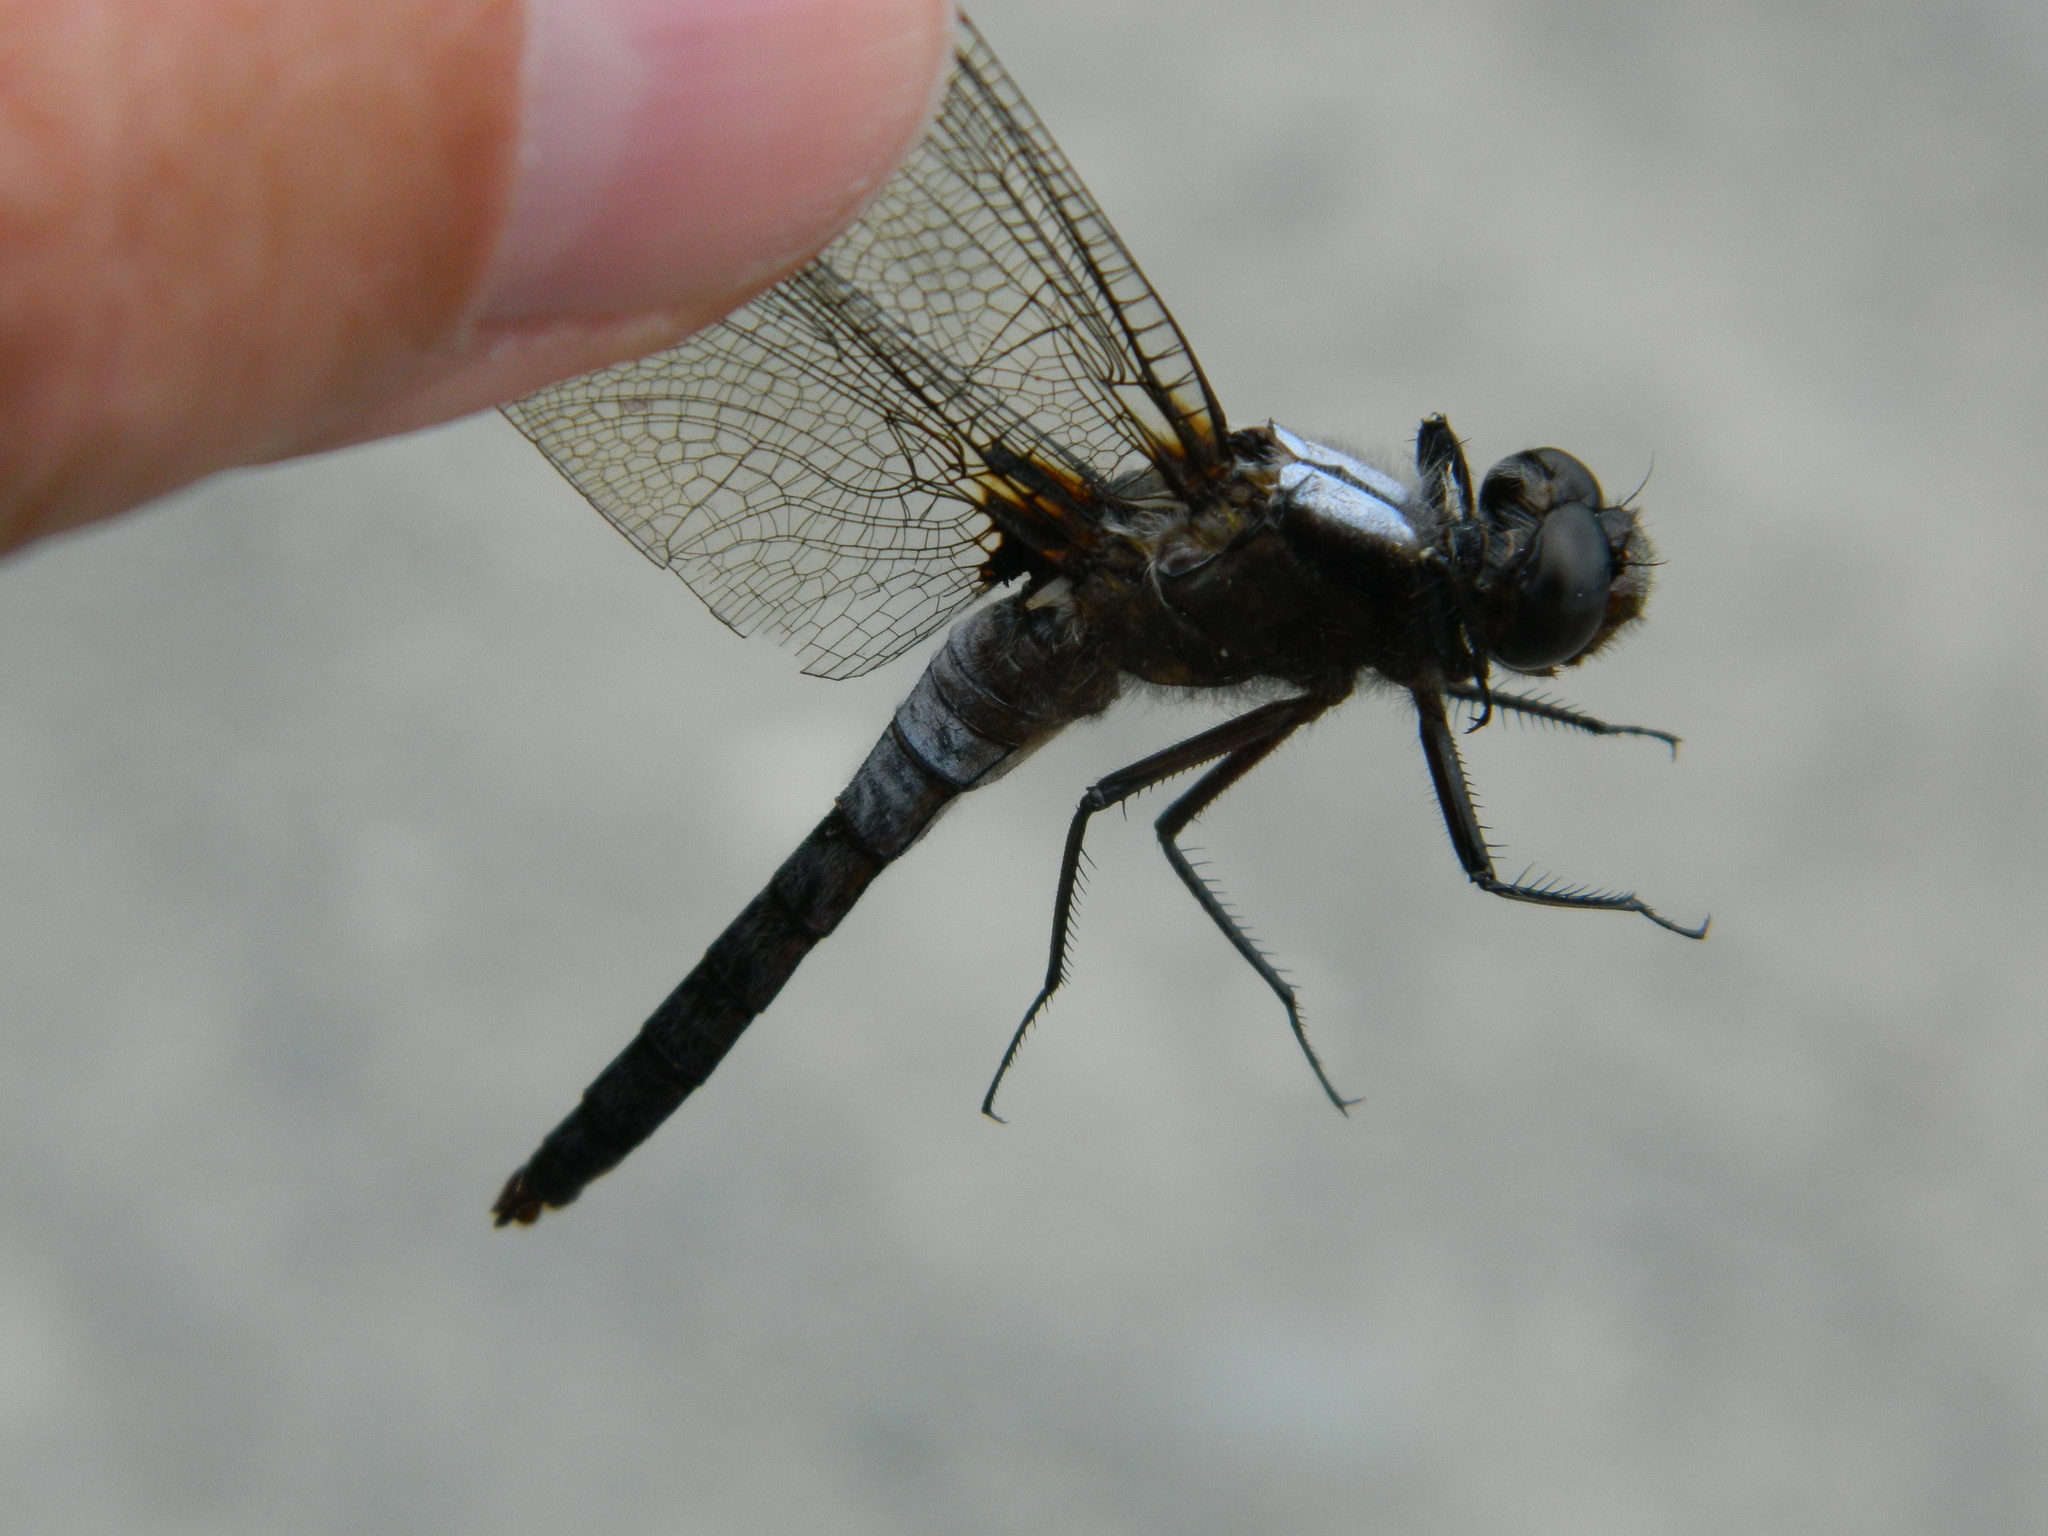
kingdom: Animalia
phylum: Arthropoda
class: Insecta
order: Odonata
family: Libellulidae
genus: Ladona
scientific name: Ladona julia
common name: Chalk-fronted corporal
